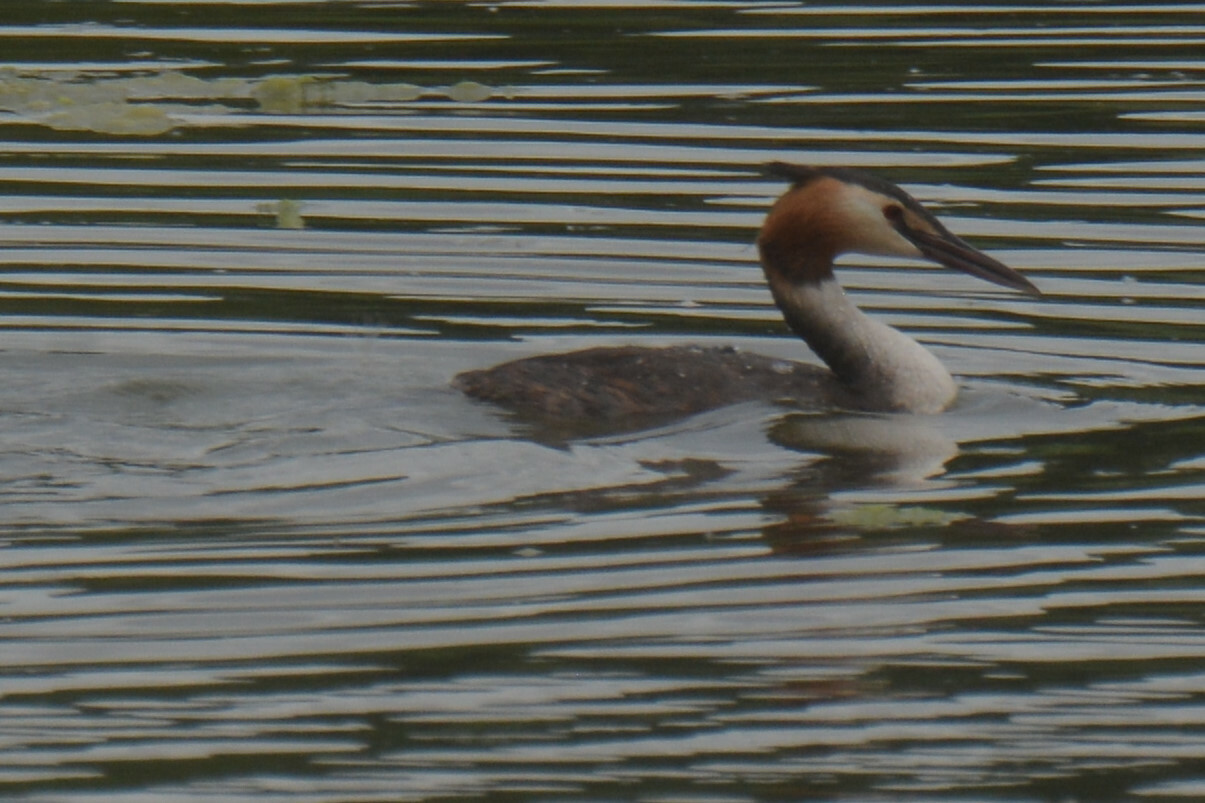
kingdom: Animalia
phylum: Chordata
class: Aves
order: Podicipediformes
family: Podicipedidae
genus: Podiceps
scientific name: Podiceps cristatus
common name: Great crested grebe
